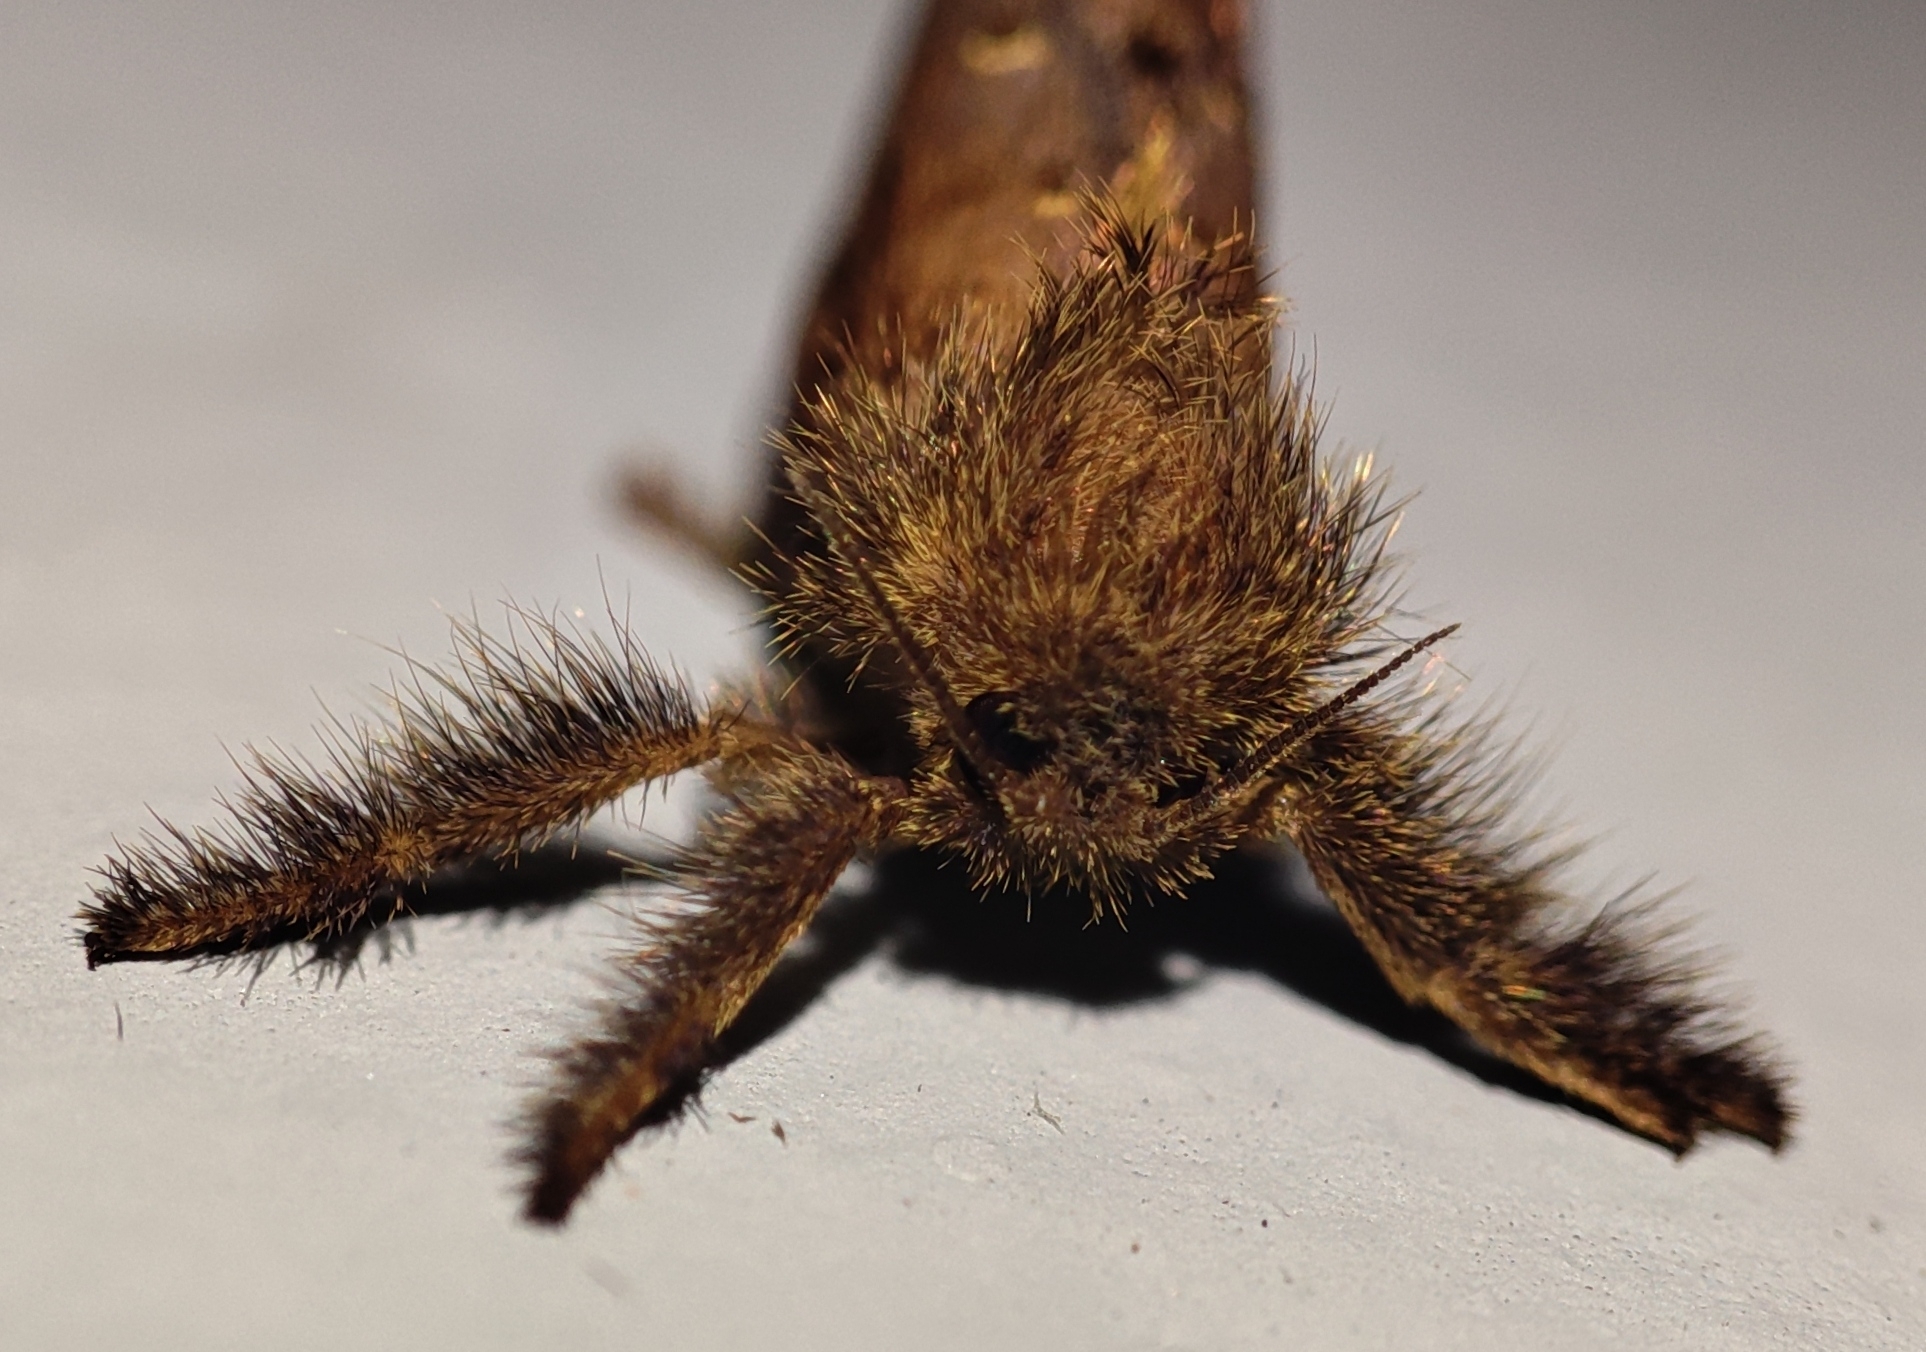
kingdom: Animalia
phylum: Arthropoda
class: Insecta
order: Lepidoptera
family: Hepialidae
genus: Palpifer
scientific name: Palpifer taprobanus
